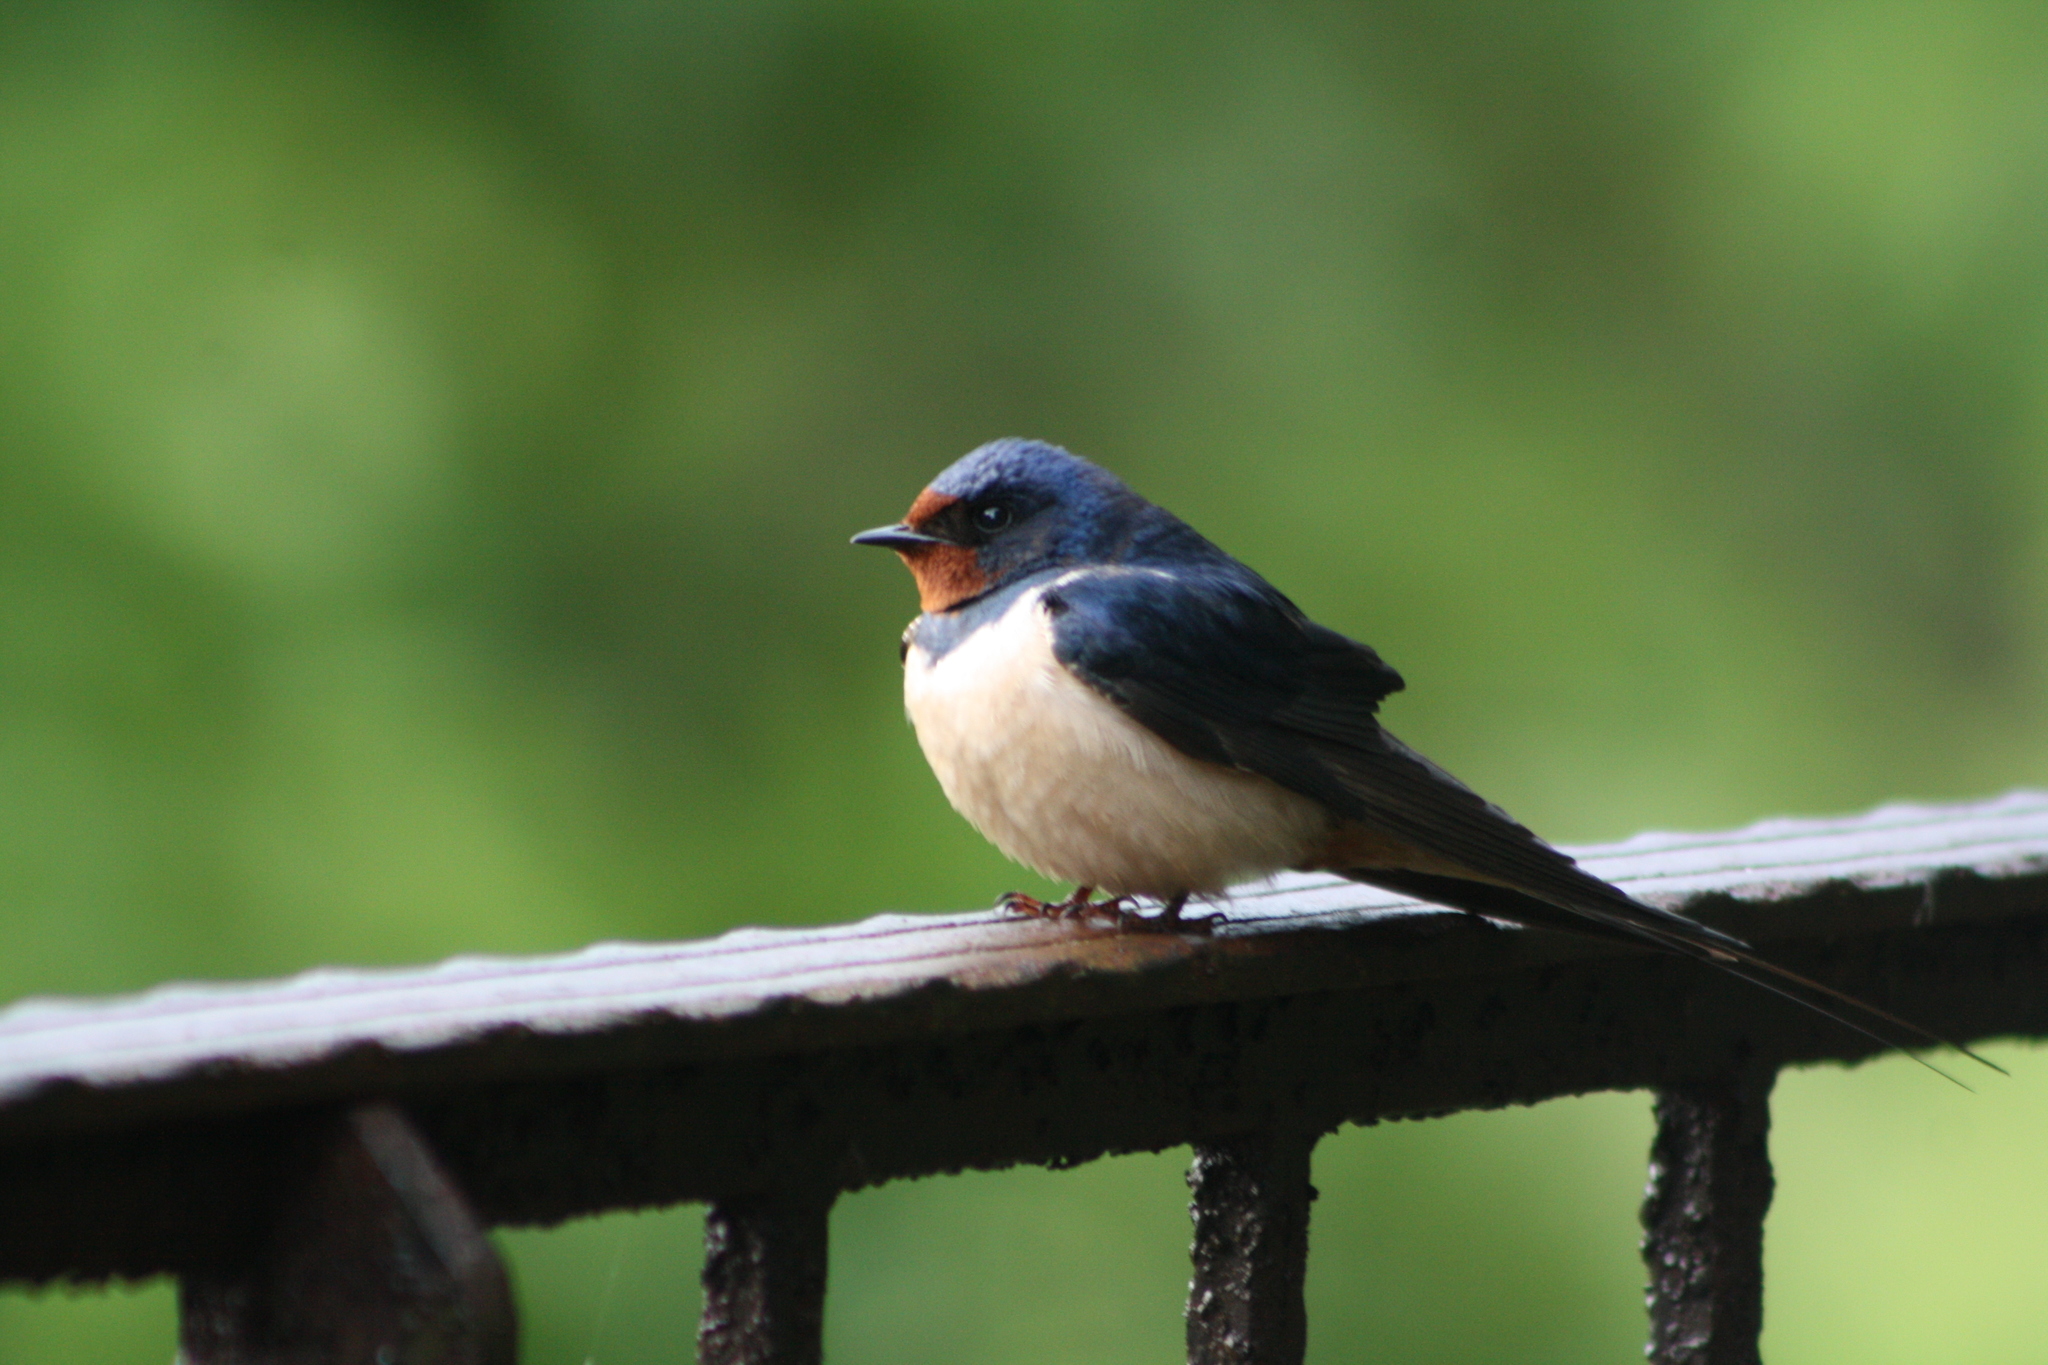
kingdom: Animalia
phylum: Chordata
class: Aves
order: Passeriformes
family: Hirundinidae
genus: Hirundo
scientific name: Hirundo rustica
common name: Barn swallow
